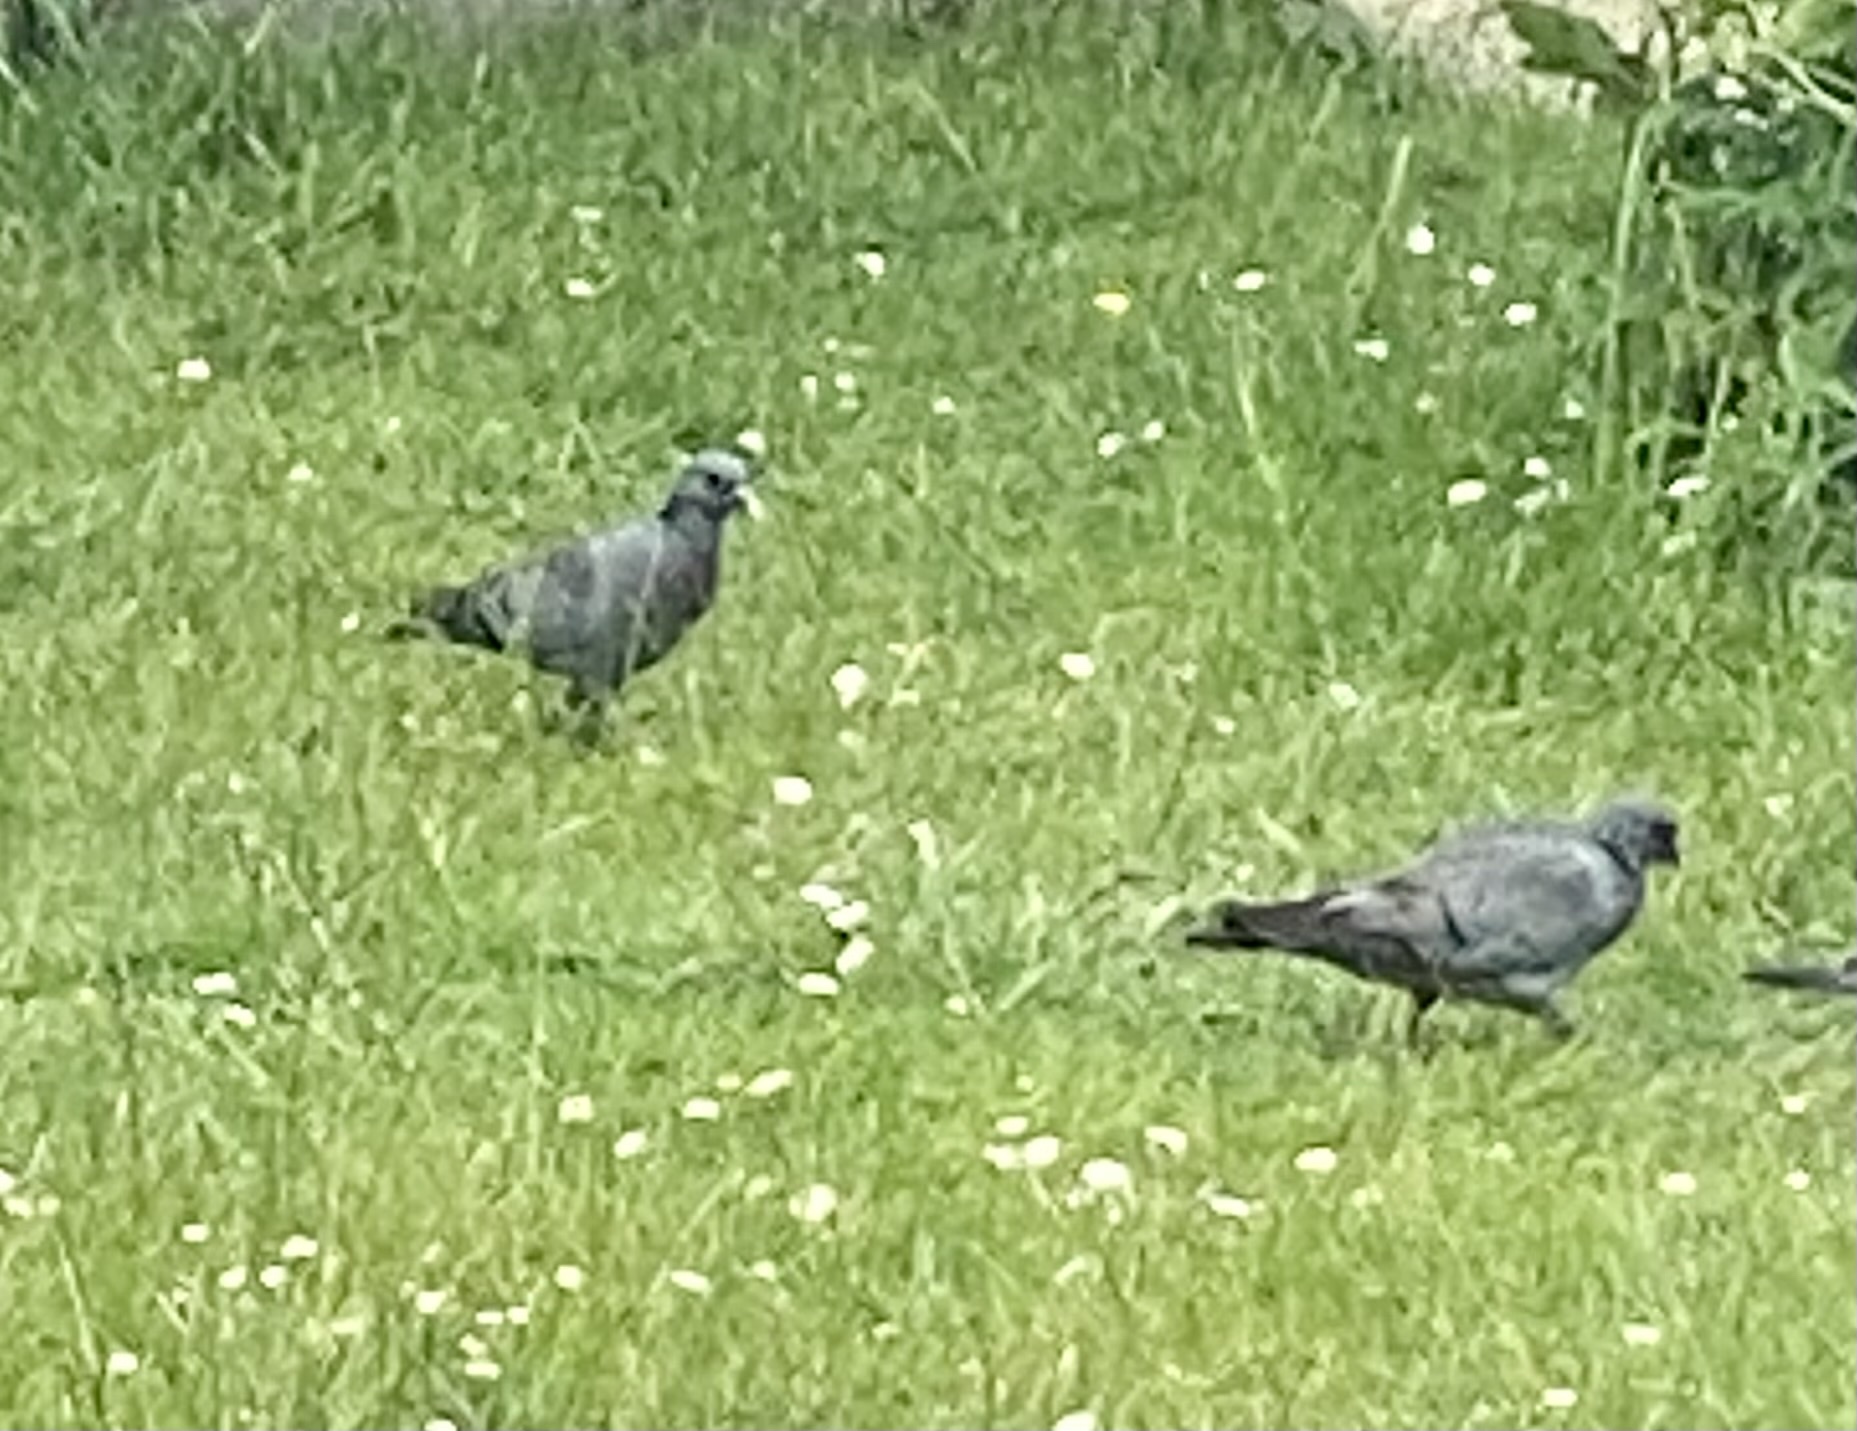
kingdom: Animalia
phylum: Chordata
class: Aves
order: Columbiformes
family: Columbidae
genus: Columba
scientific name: Columba oenas
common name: Stock dove
